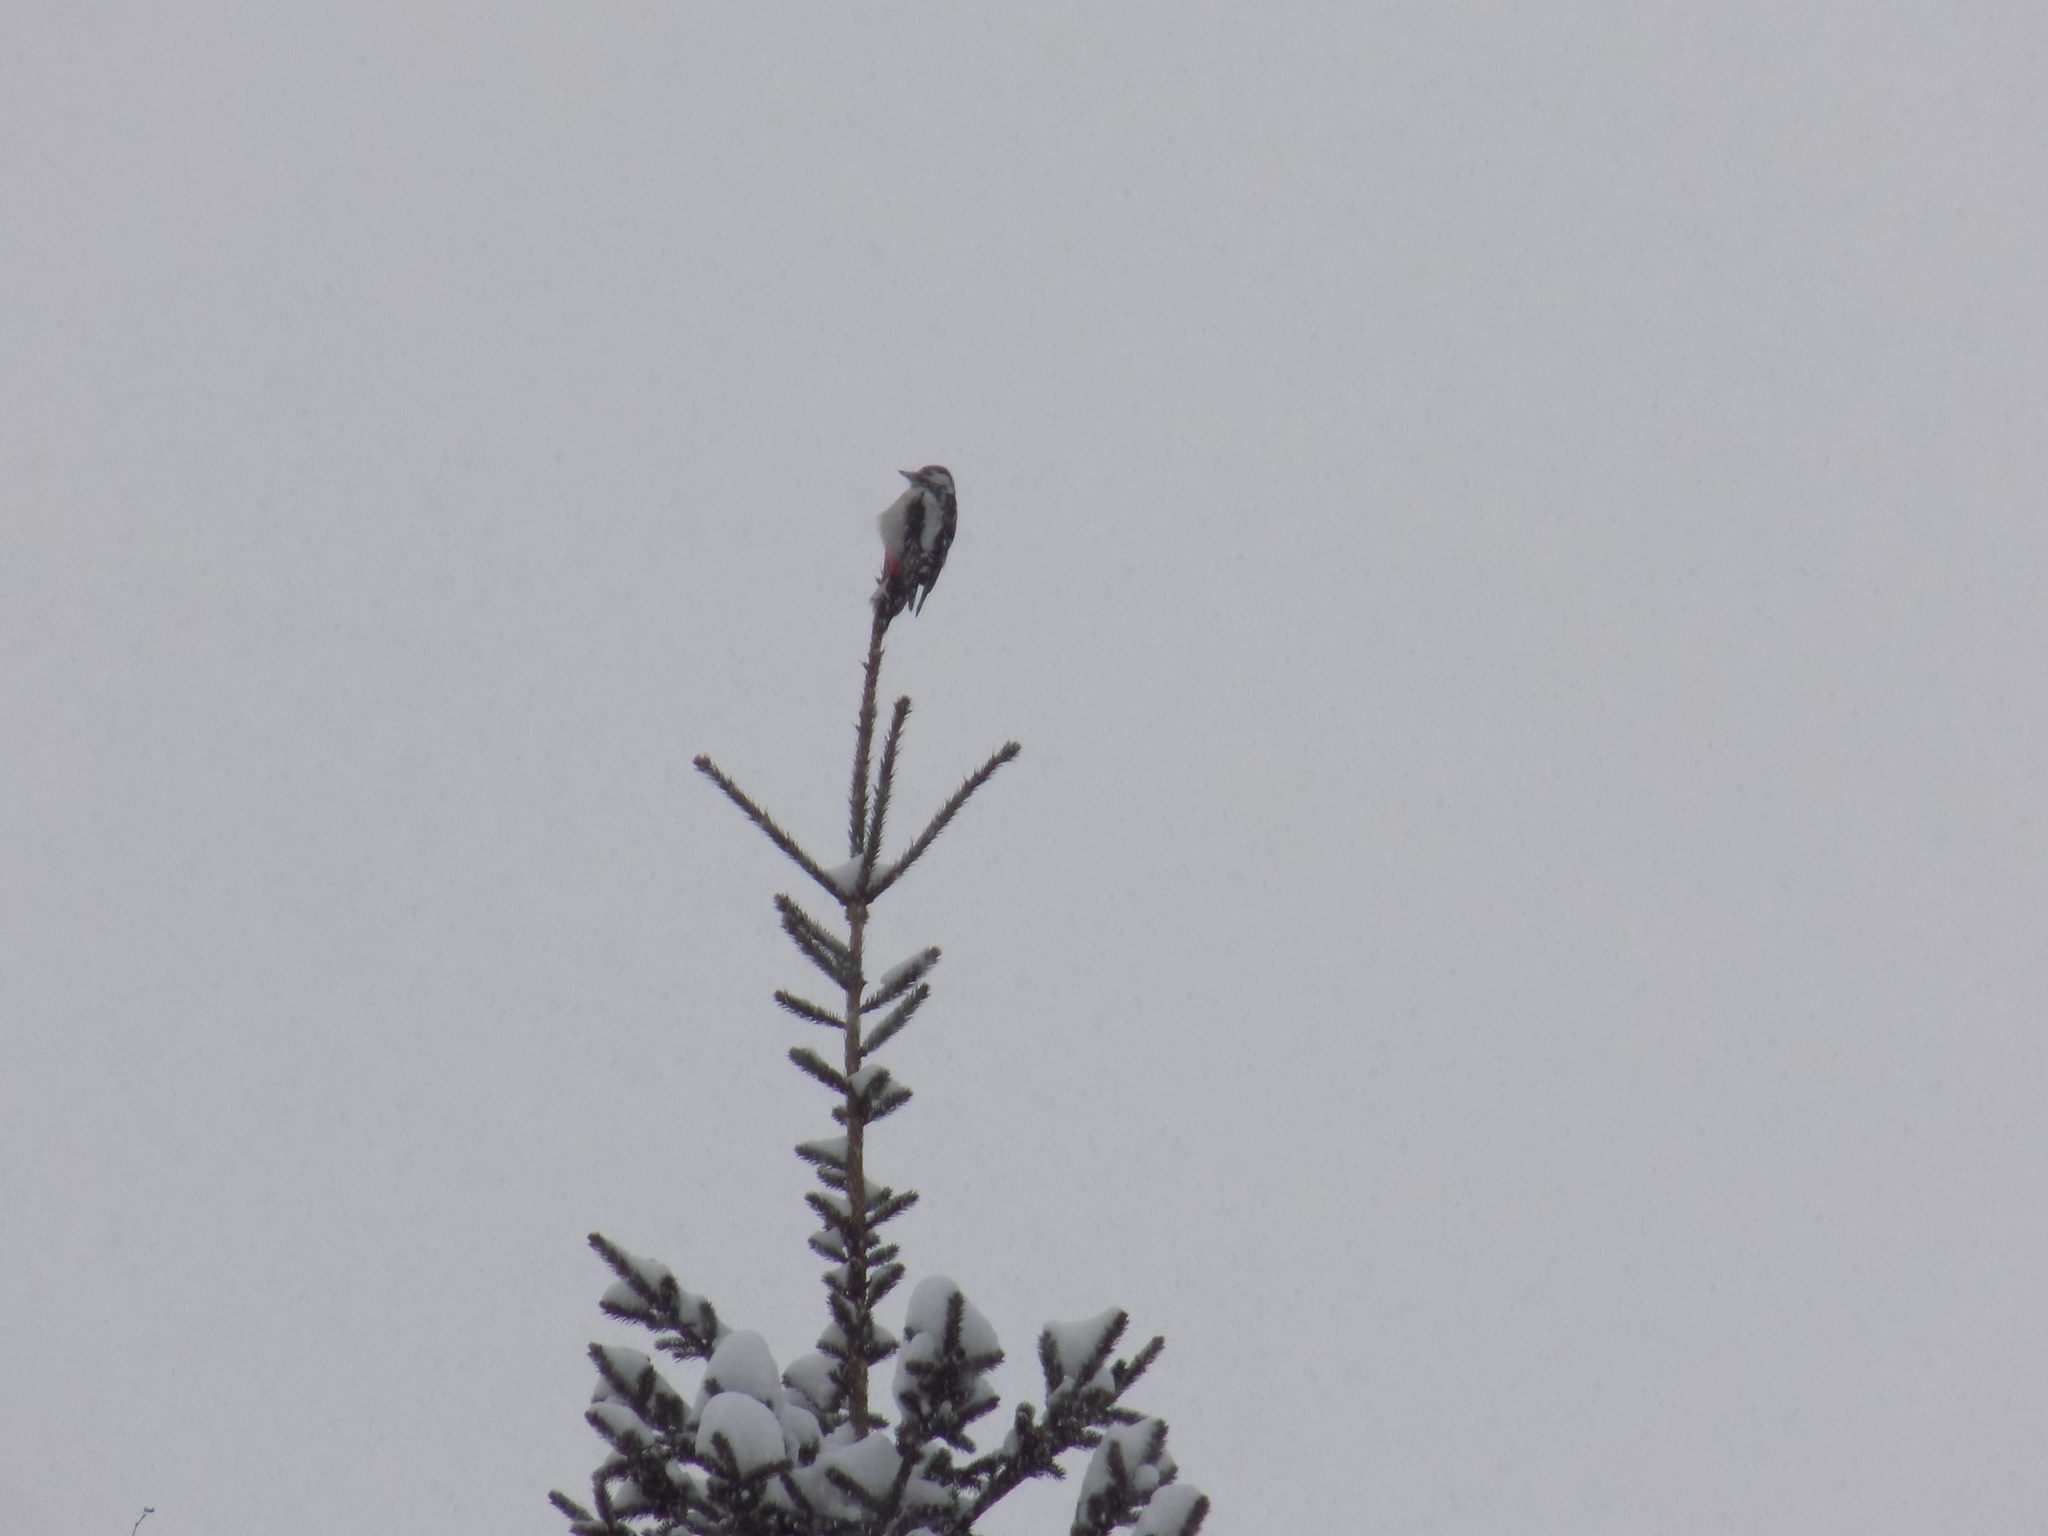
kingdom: Animalia
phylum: Chordata
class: Aves
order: Piciformes
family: Picidae
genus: Dendrocopos
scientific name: Dendrocopos major
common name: Great spotted woodpecker
